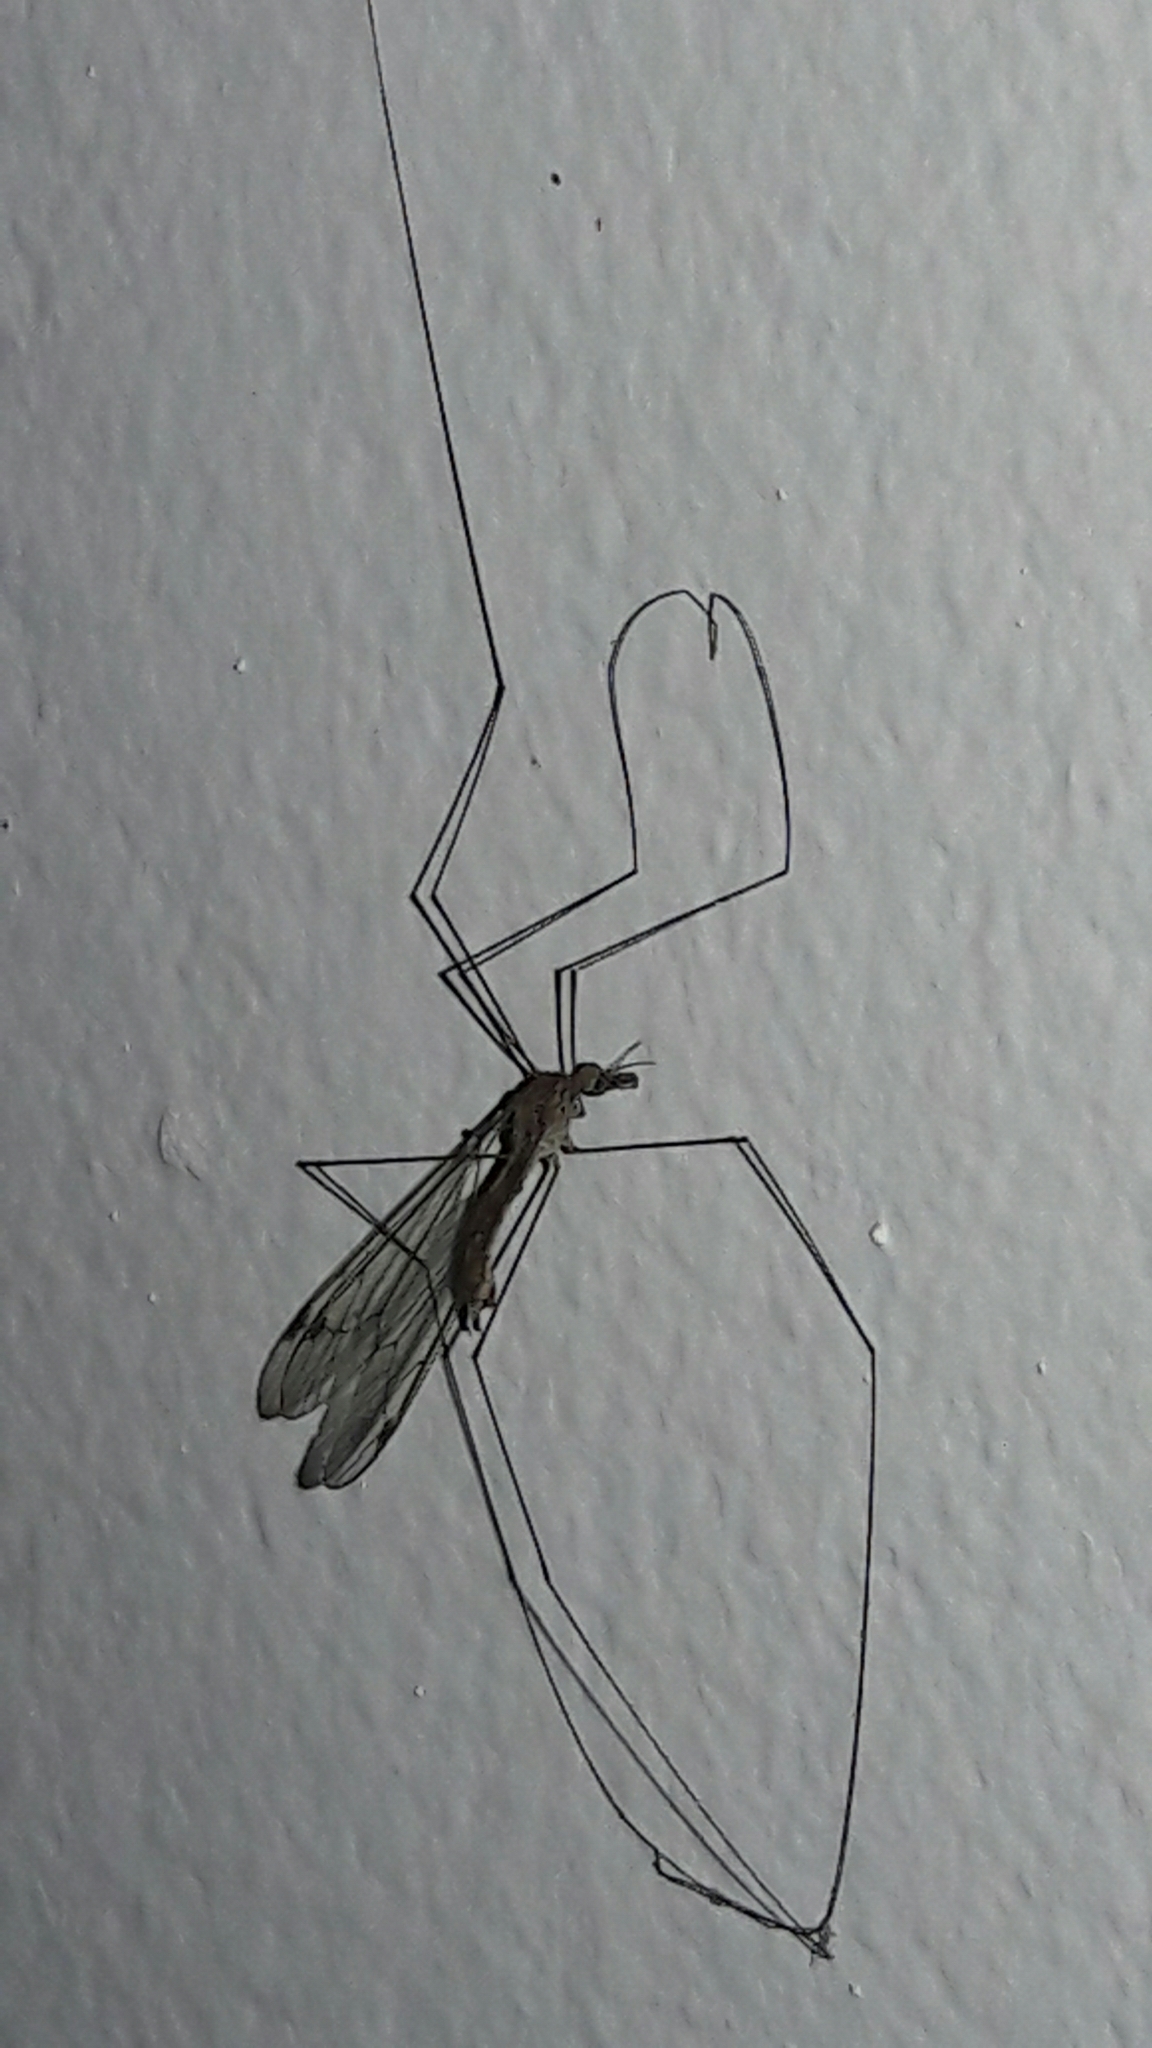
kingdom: Animalia
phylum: Arthropoda
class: Insecta
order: Diptera
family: Tipulidae
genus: Maekistocera
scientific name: Maekistocera longipennis
